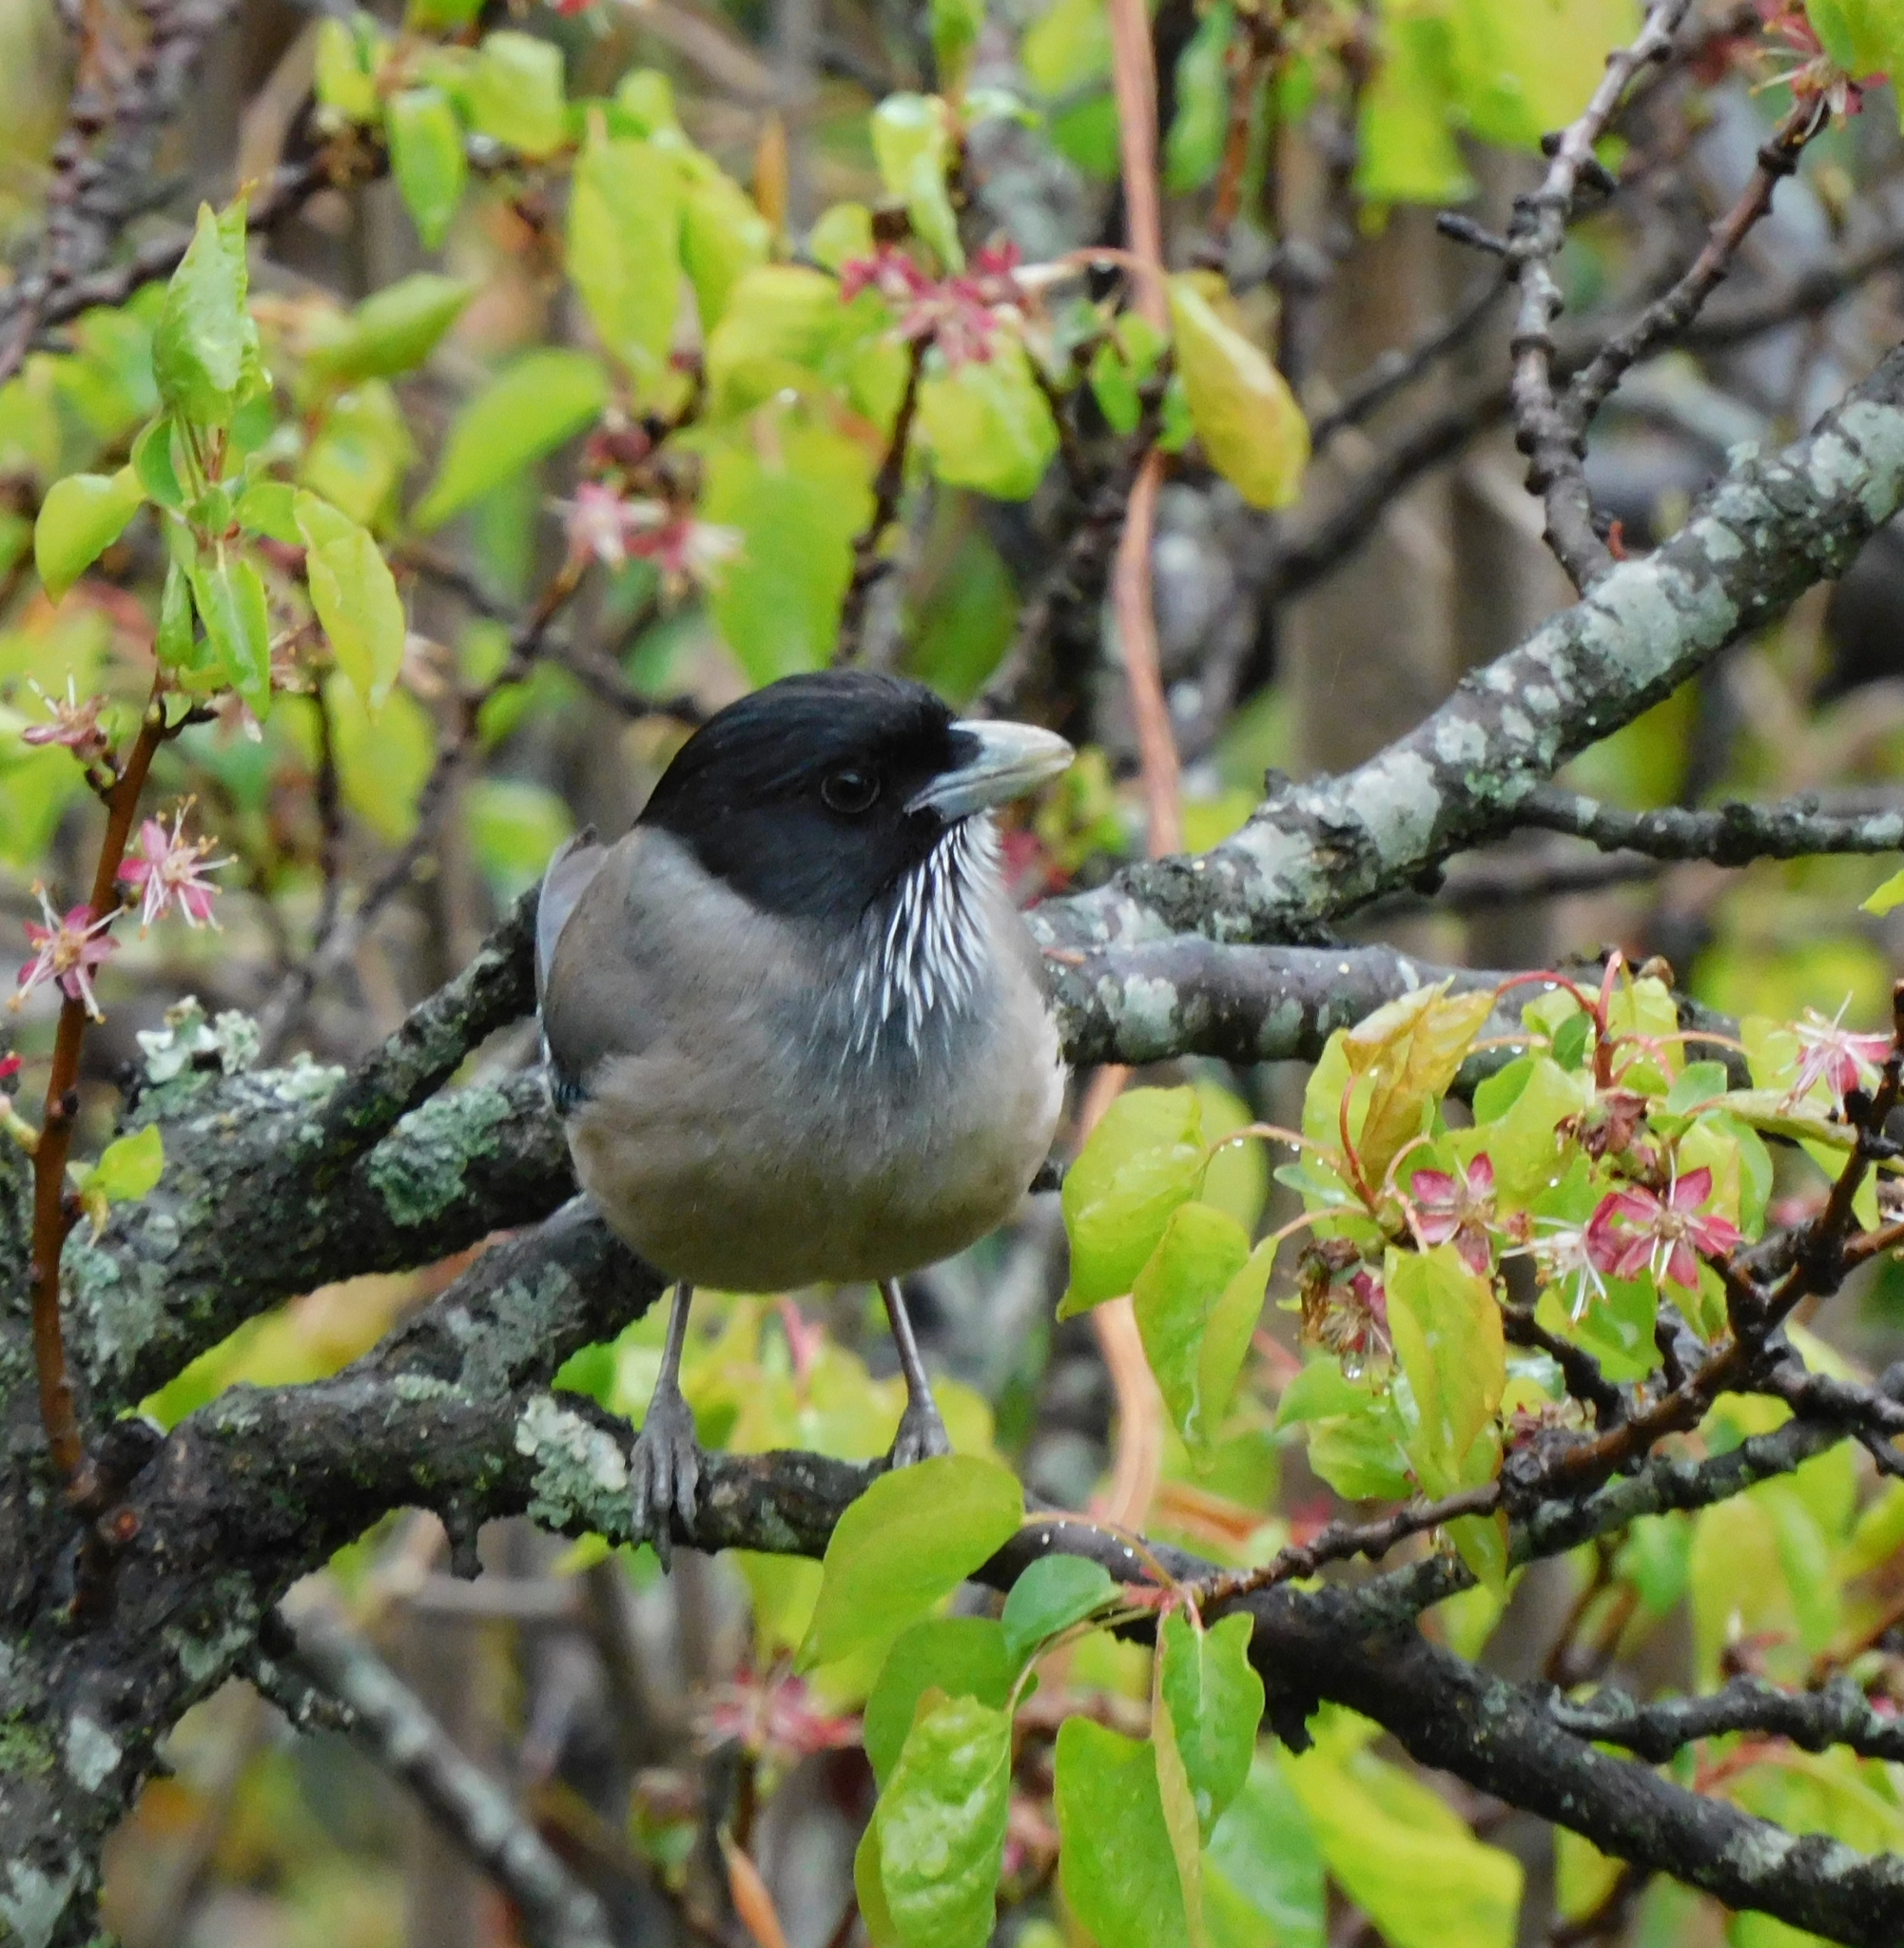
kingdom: Animalia
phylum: Chordata
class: Aves
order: Passeriformes
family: Corvidae
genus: Garrulus
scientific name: Garrulus lanceolatus
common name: Black-headed jay
